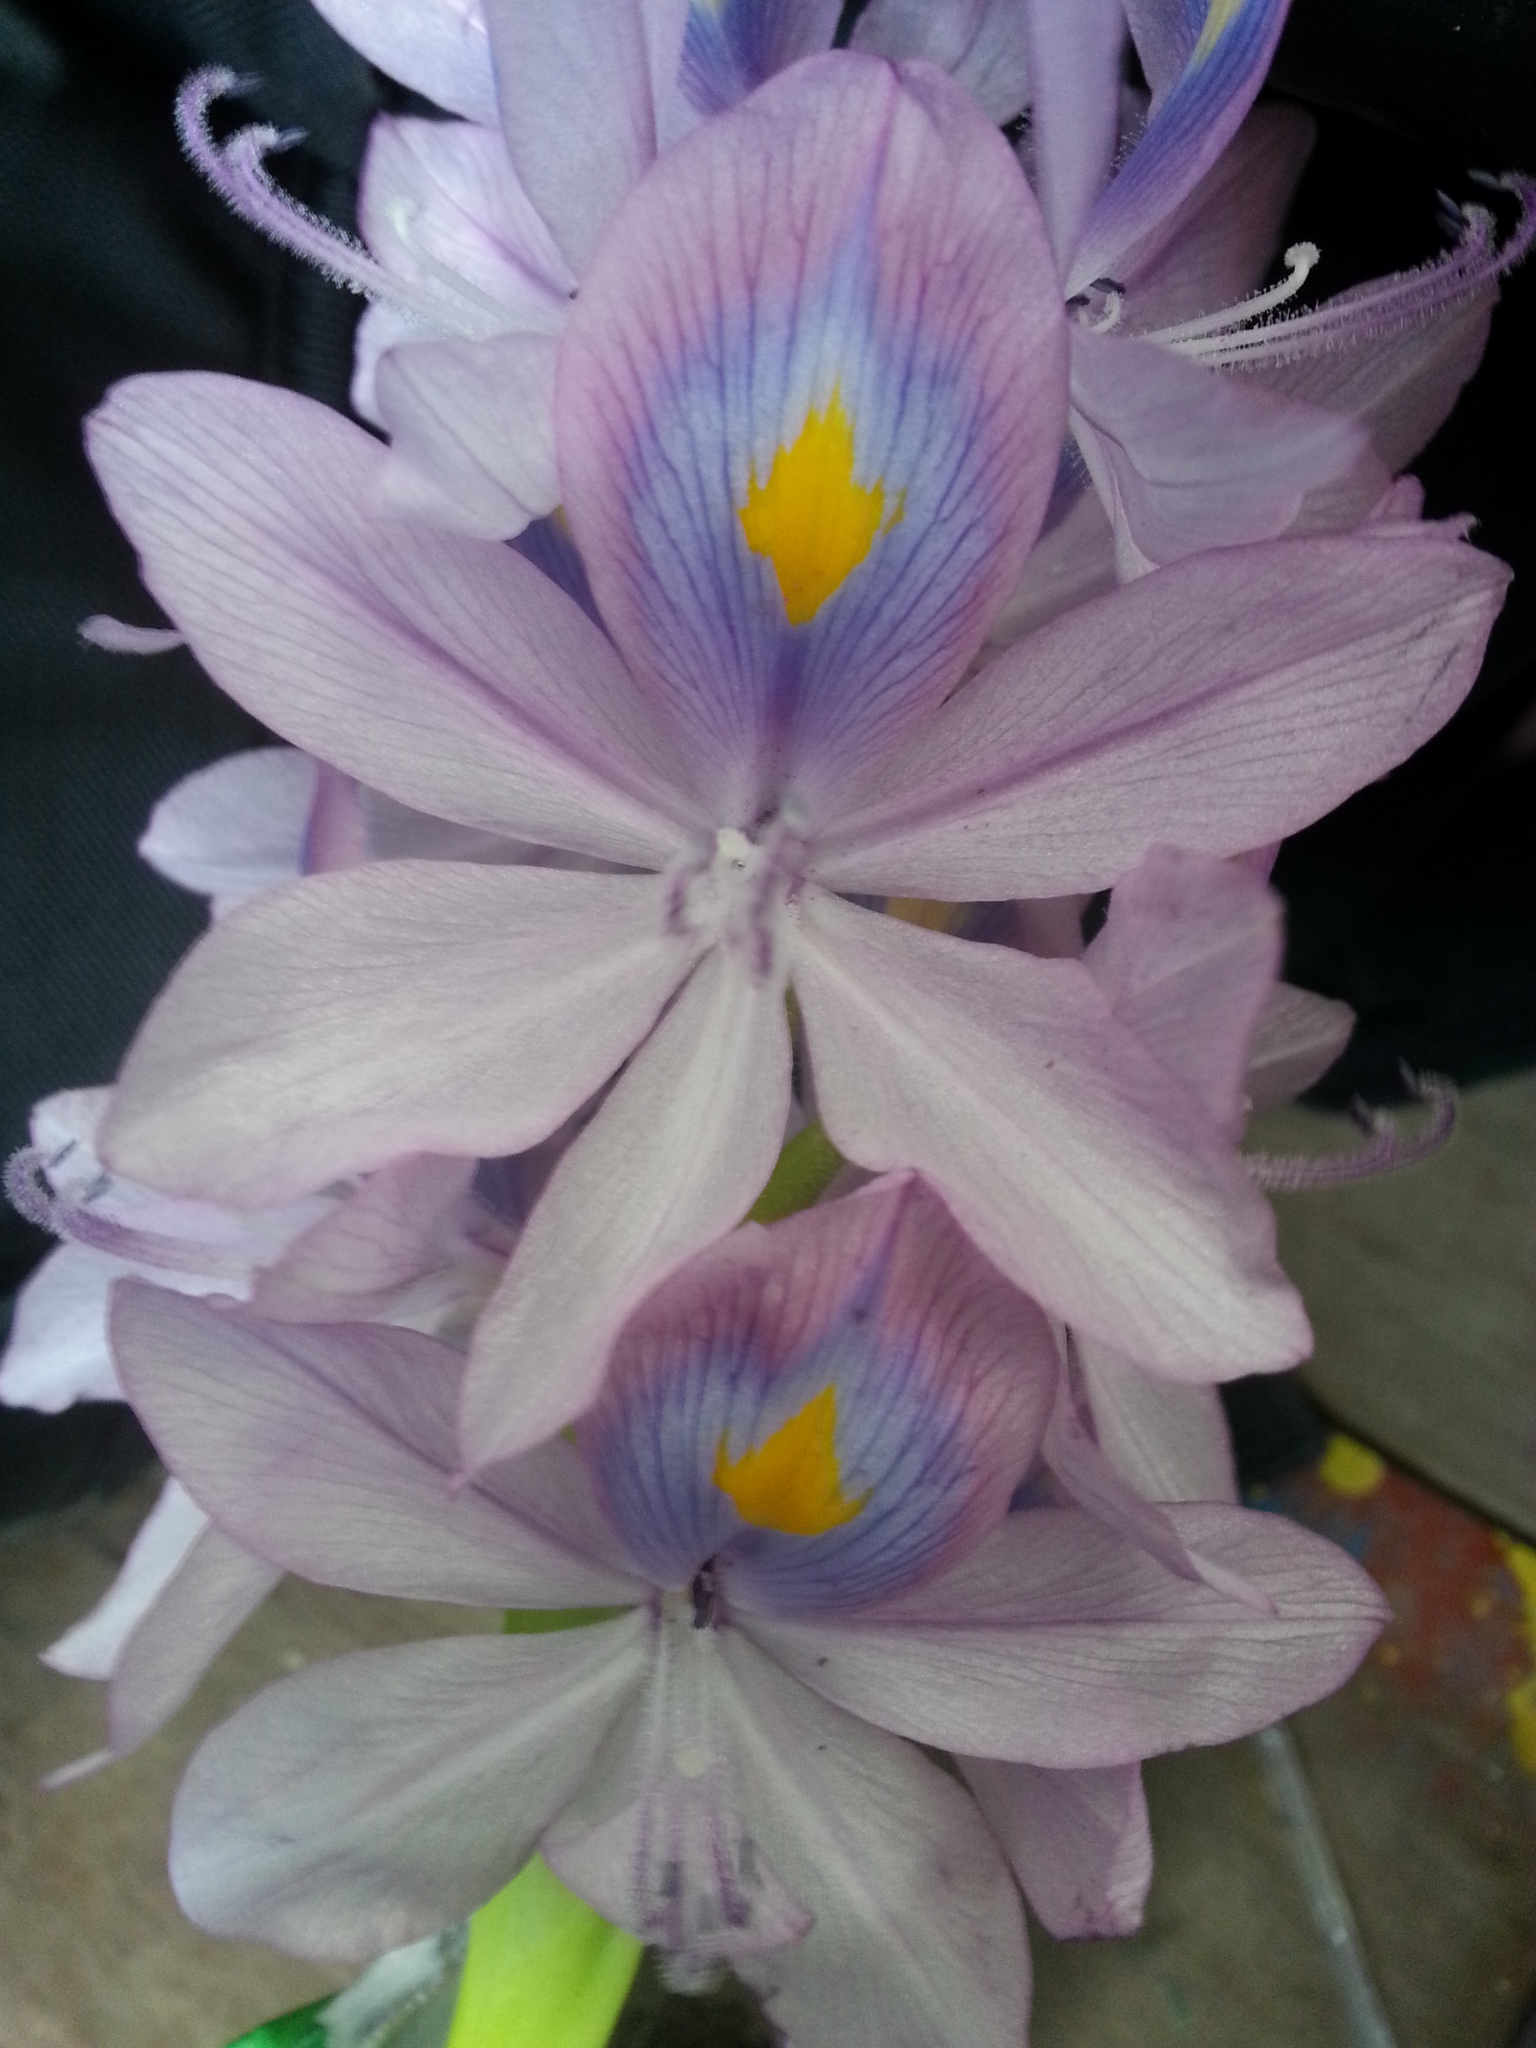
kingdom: Plantae
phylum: Tracheophyta
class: Liliopsida
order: Commelinales
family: Pontederiaceae
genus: Pontederia
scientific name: Pontederia crassipes
